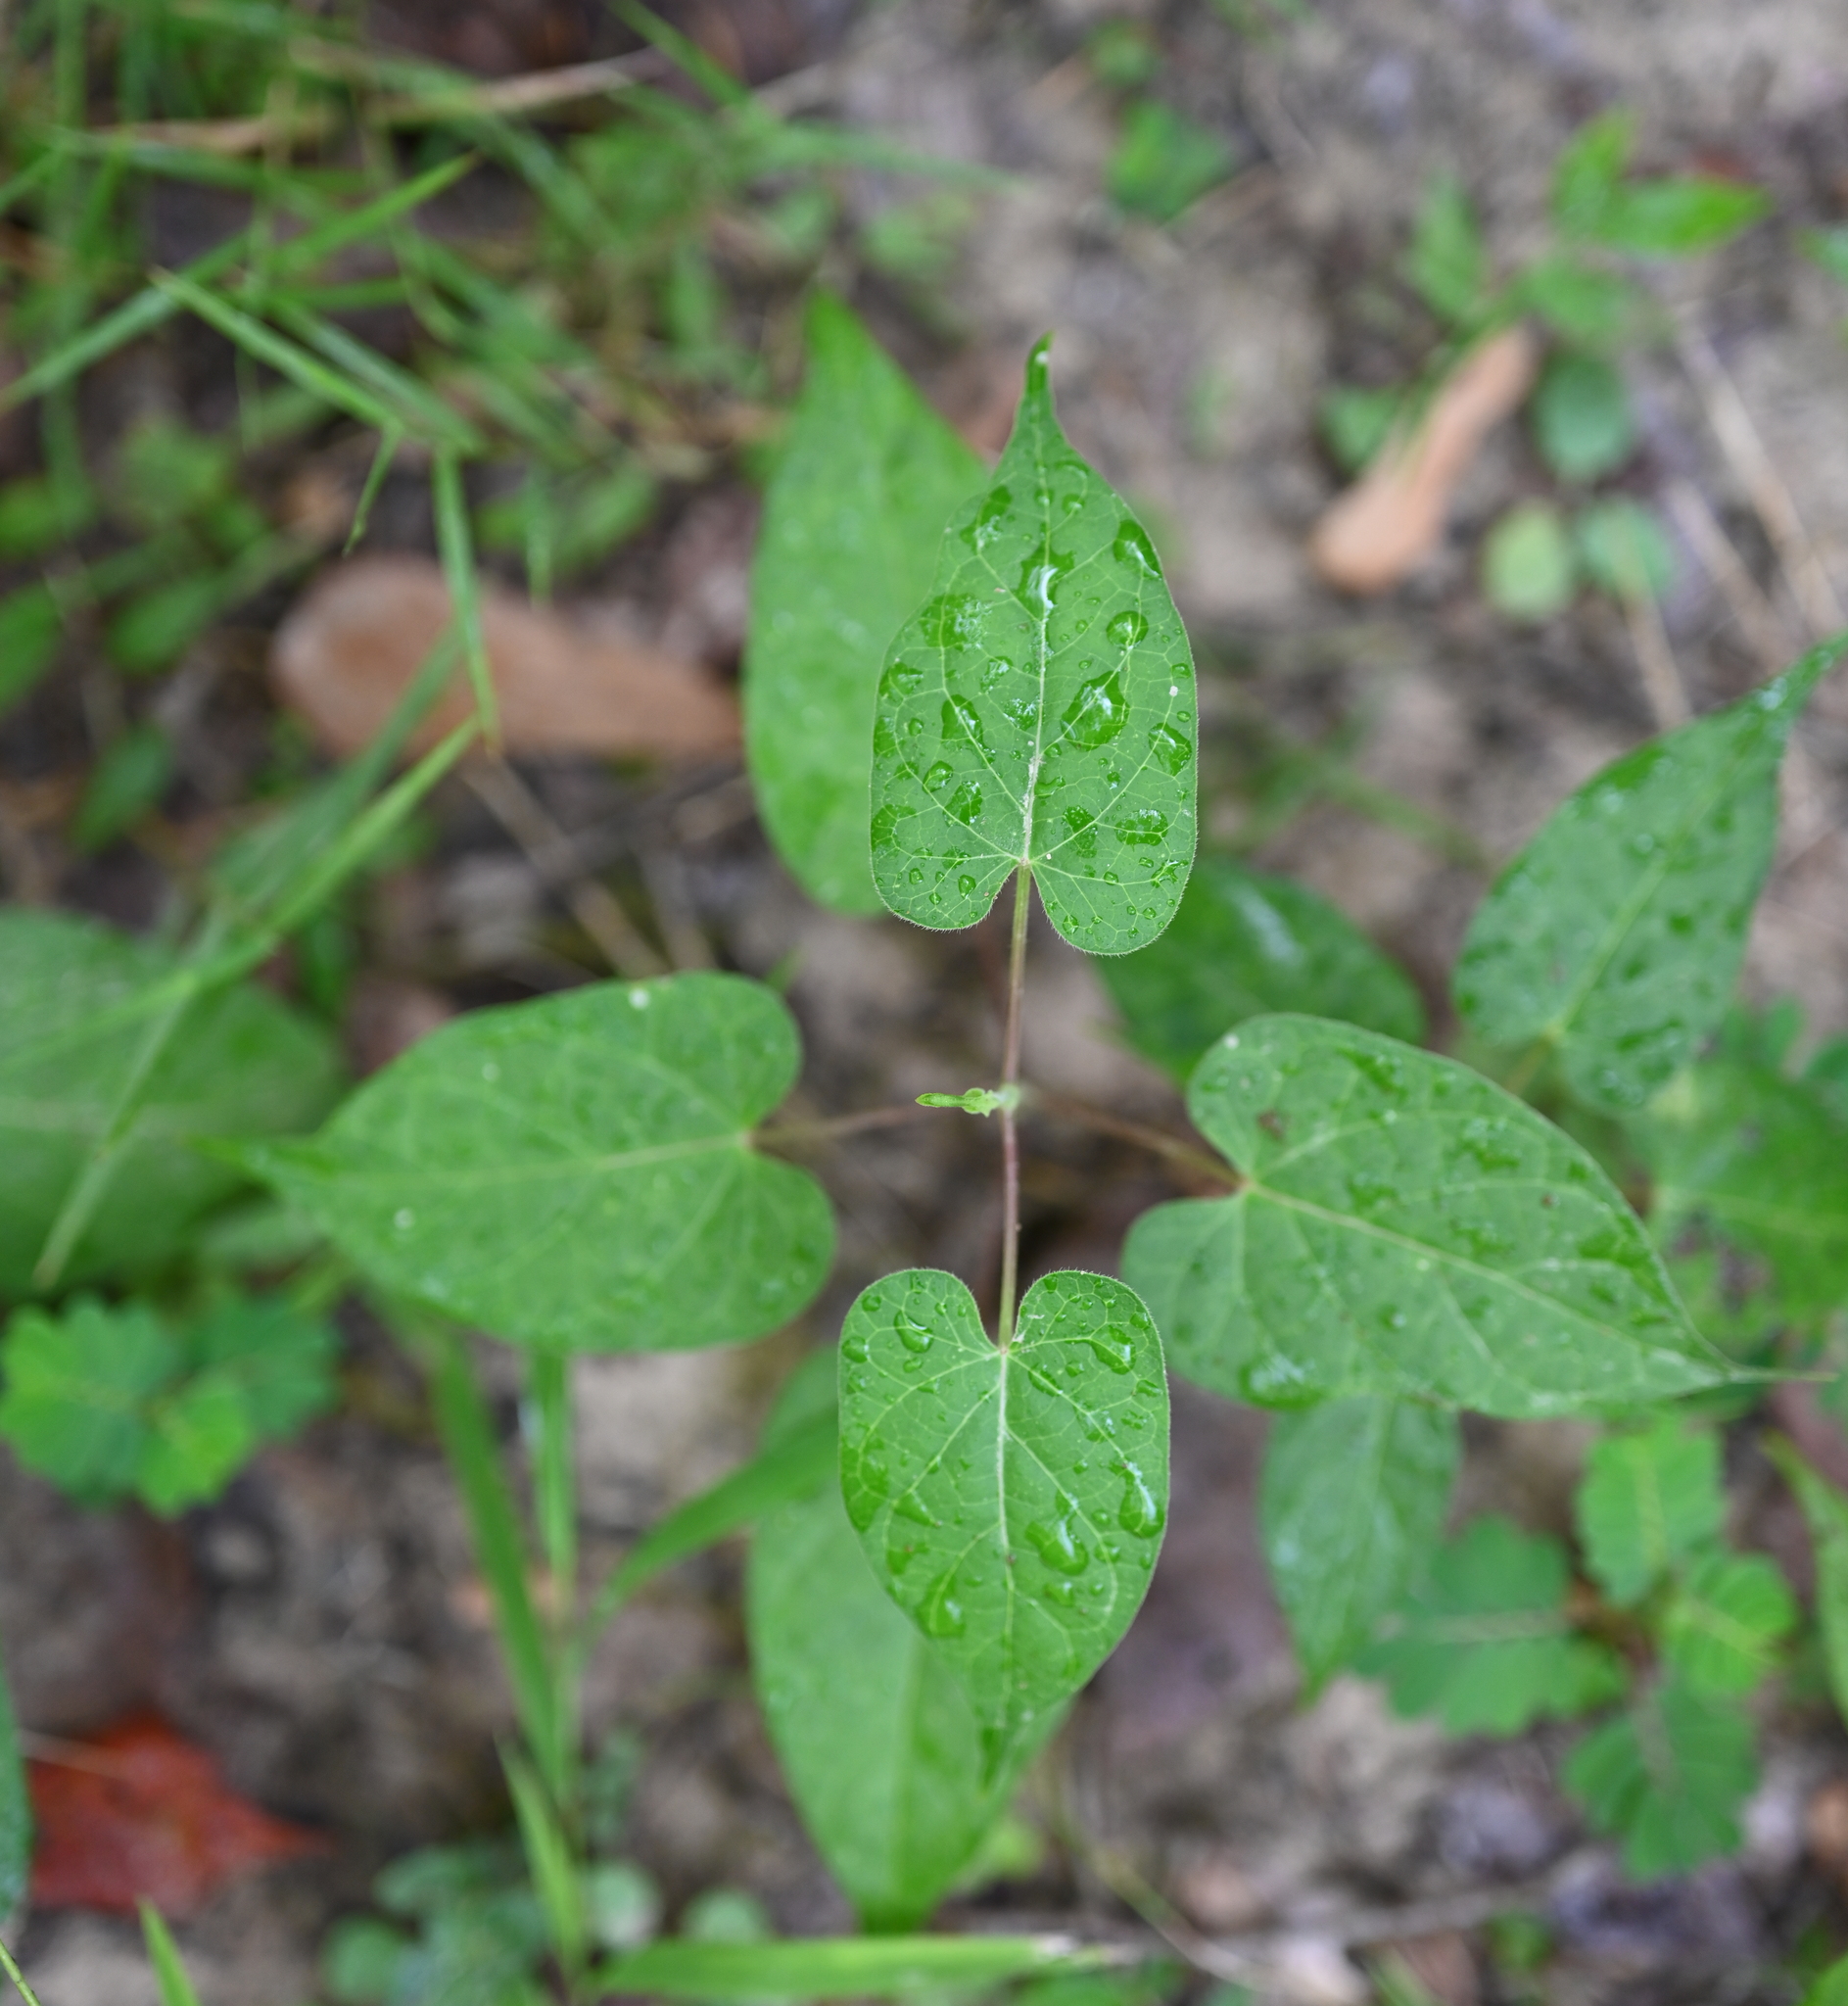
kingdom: Plantae
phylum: Tracheophyta
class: Magnoliopsida
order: Gentianales
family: Apocynaceae
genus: Gonolobus
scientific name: Gonolobus suberosus
